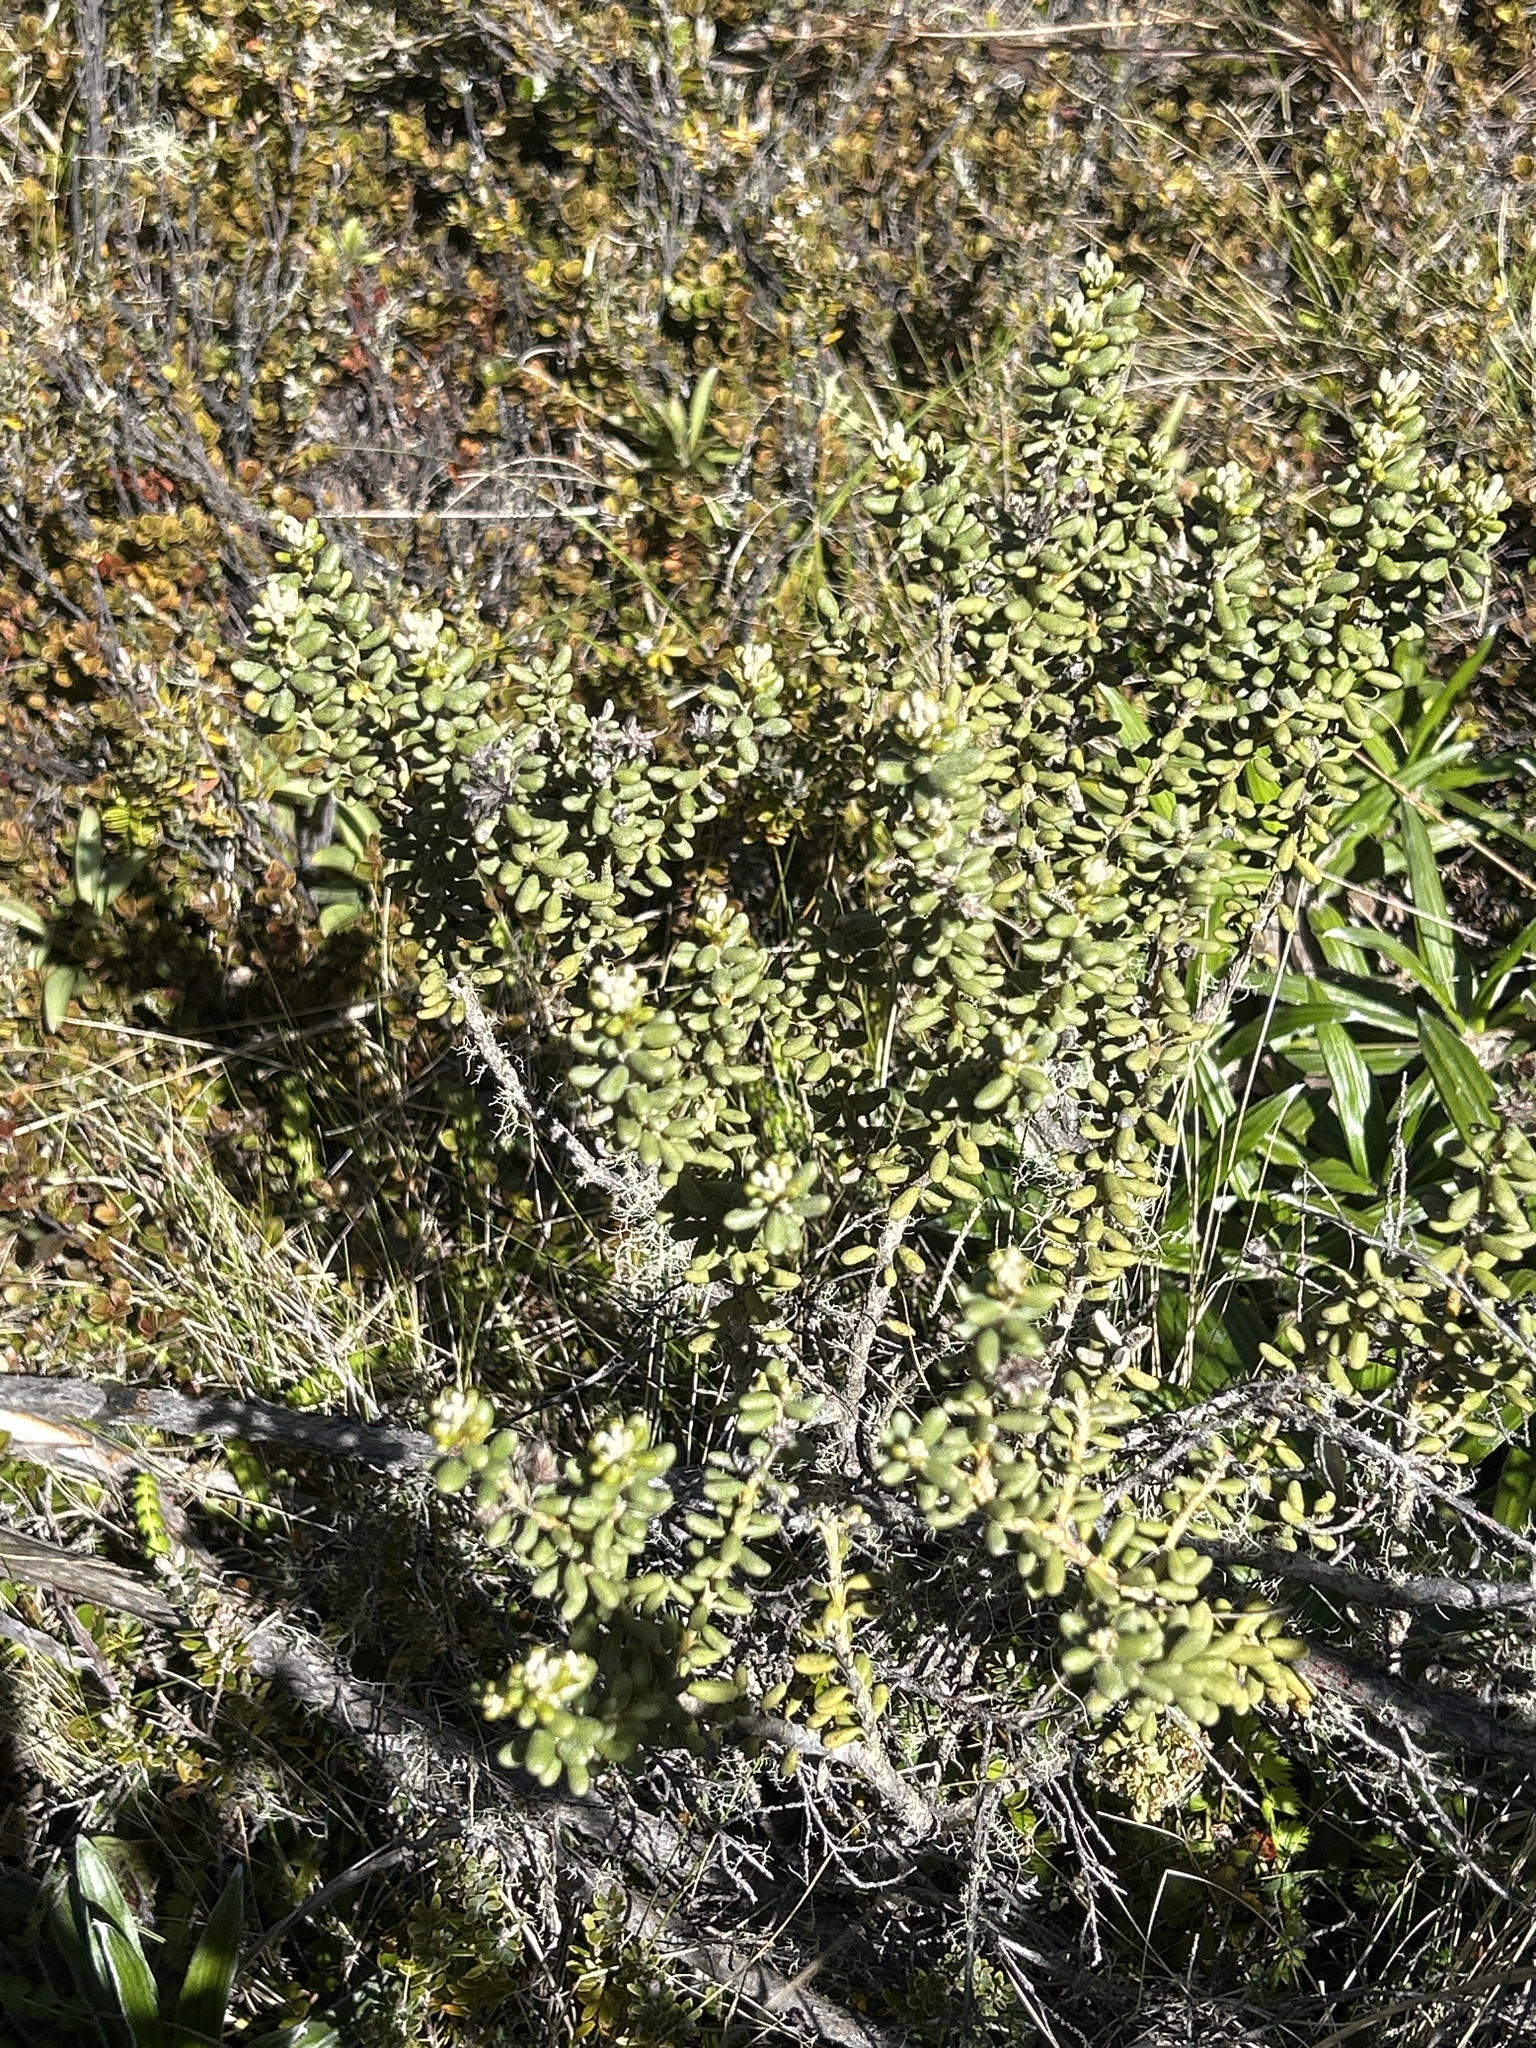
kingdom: Plantae
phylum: Tracheophyta
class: Magnoliopsida
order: Asterales
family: Asteraceae
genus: Olearia
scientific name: Olearia cymbifolia
